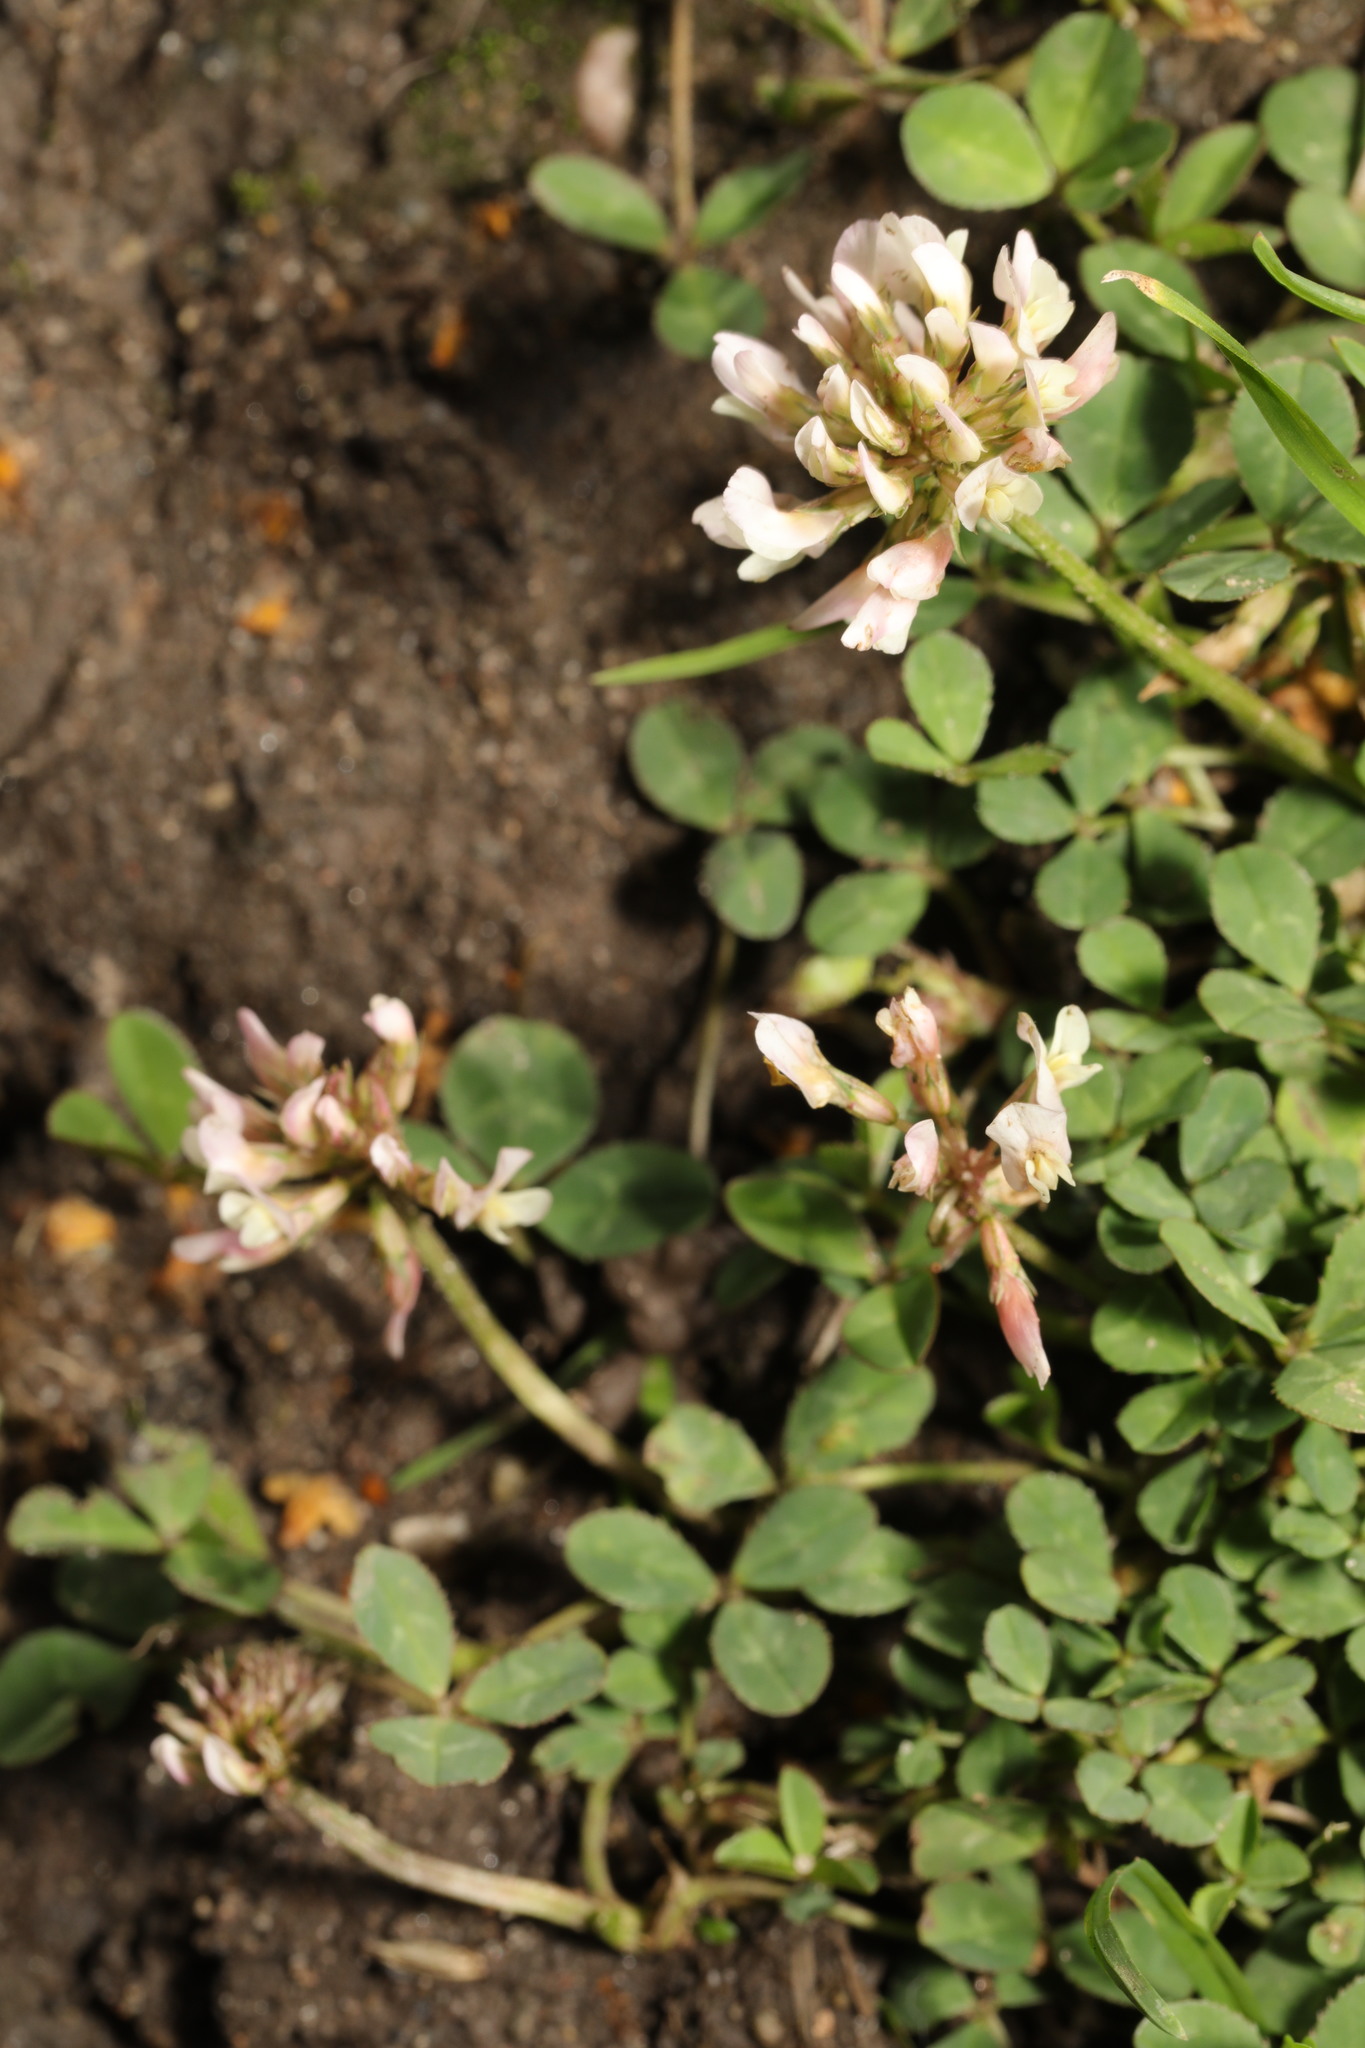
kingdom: Plantae
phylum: Tracheophyta
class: Magnoliopsida
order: Fabales
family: Fabaceae
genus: Trifolium
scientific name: Trifolium repens
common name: White clover
